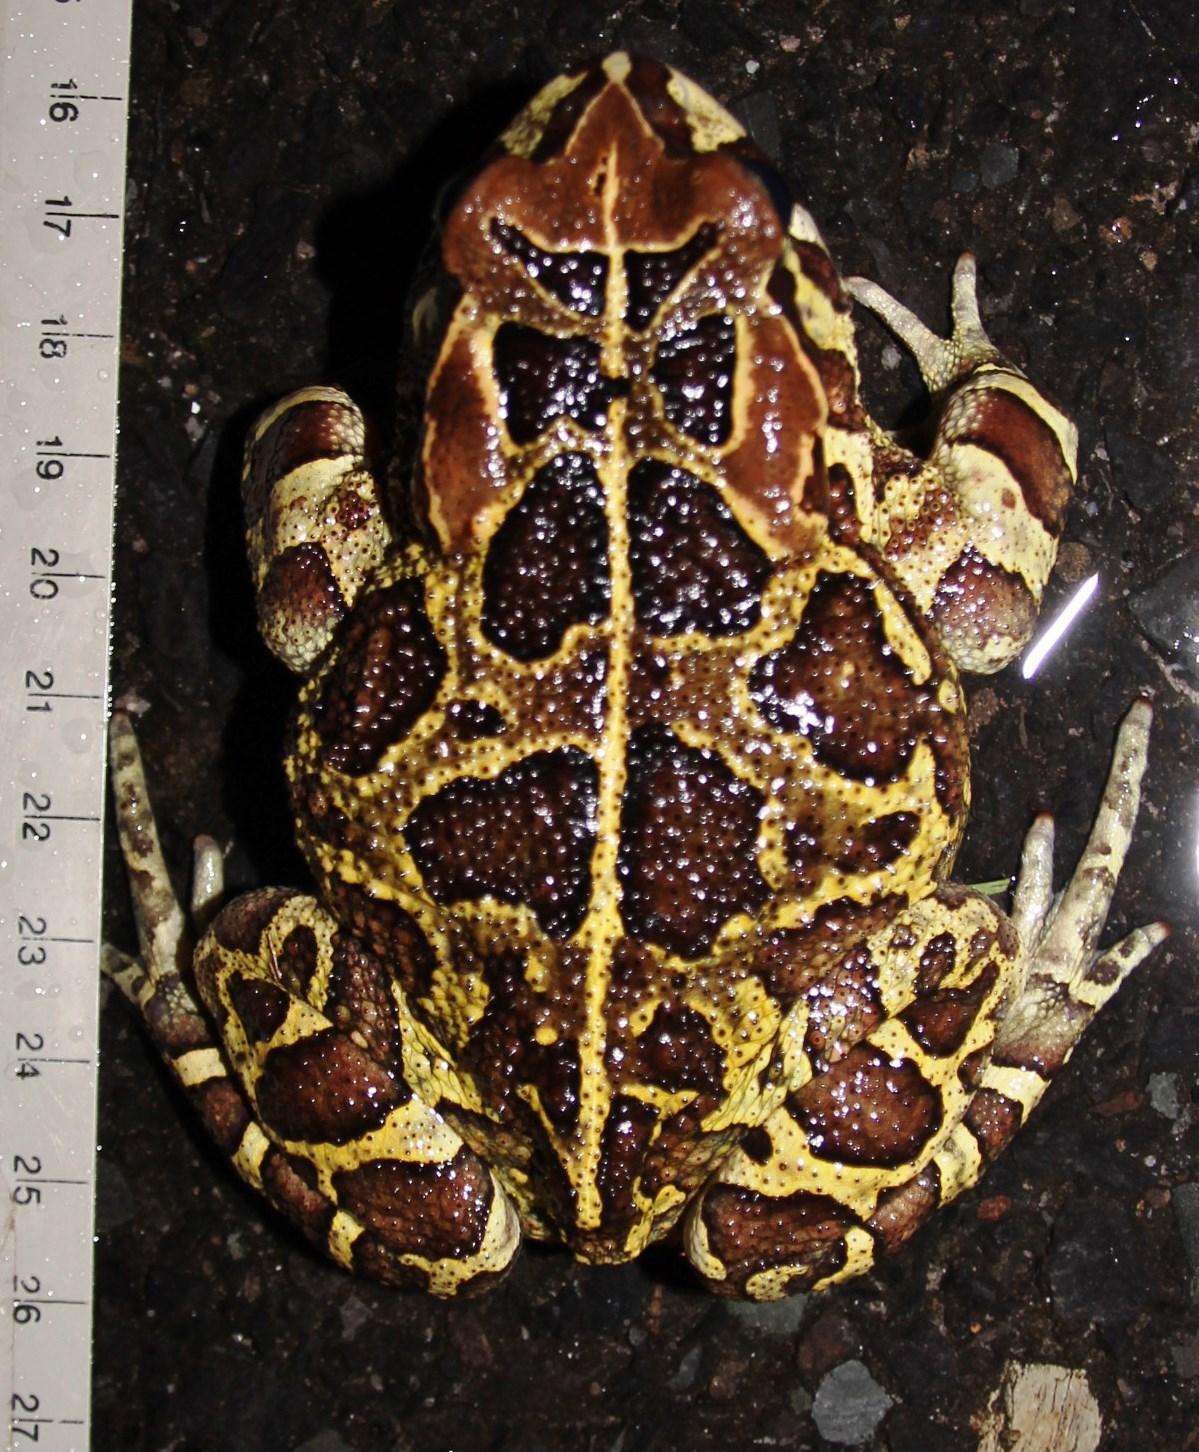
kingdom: Animalia
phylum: Chordata
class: Amphibia
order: Anura
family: Bufonidae
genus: Sclerophrys
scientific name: Sclerophrys pantherina
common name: Panther toad
